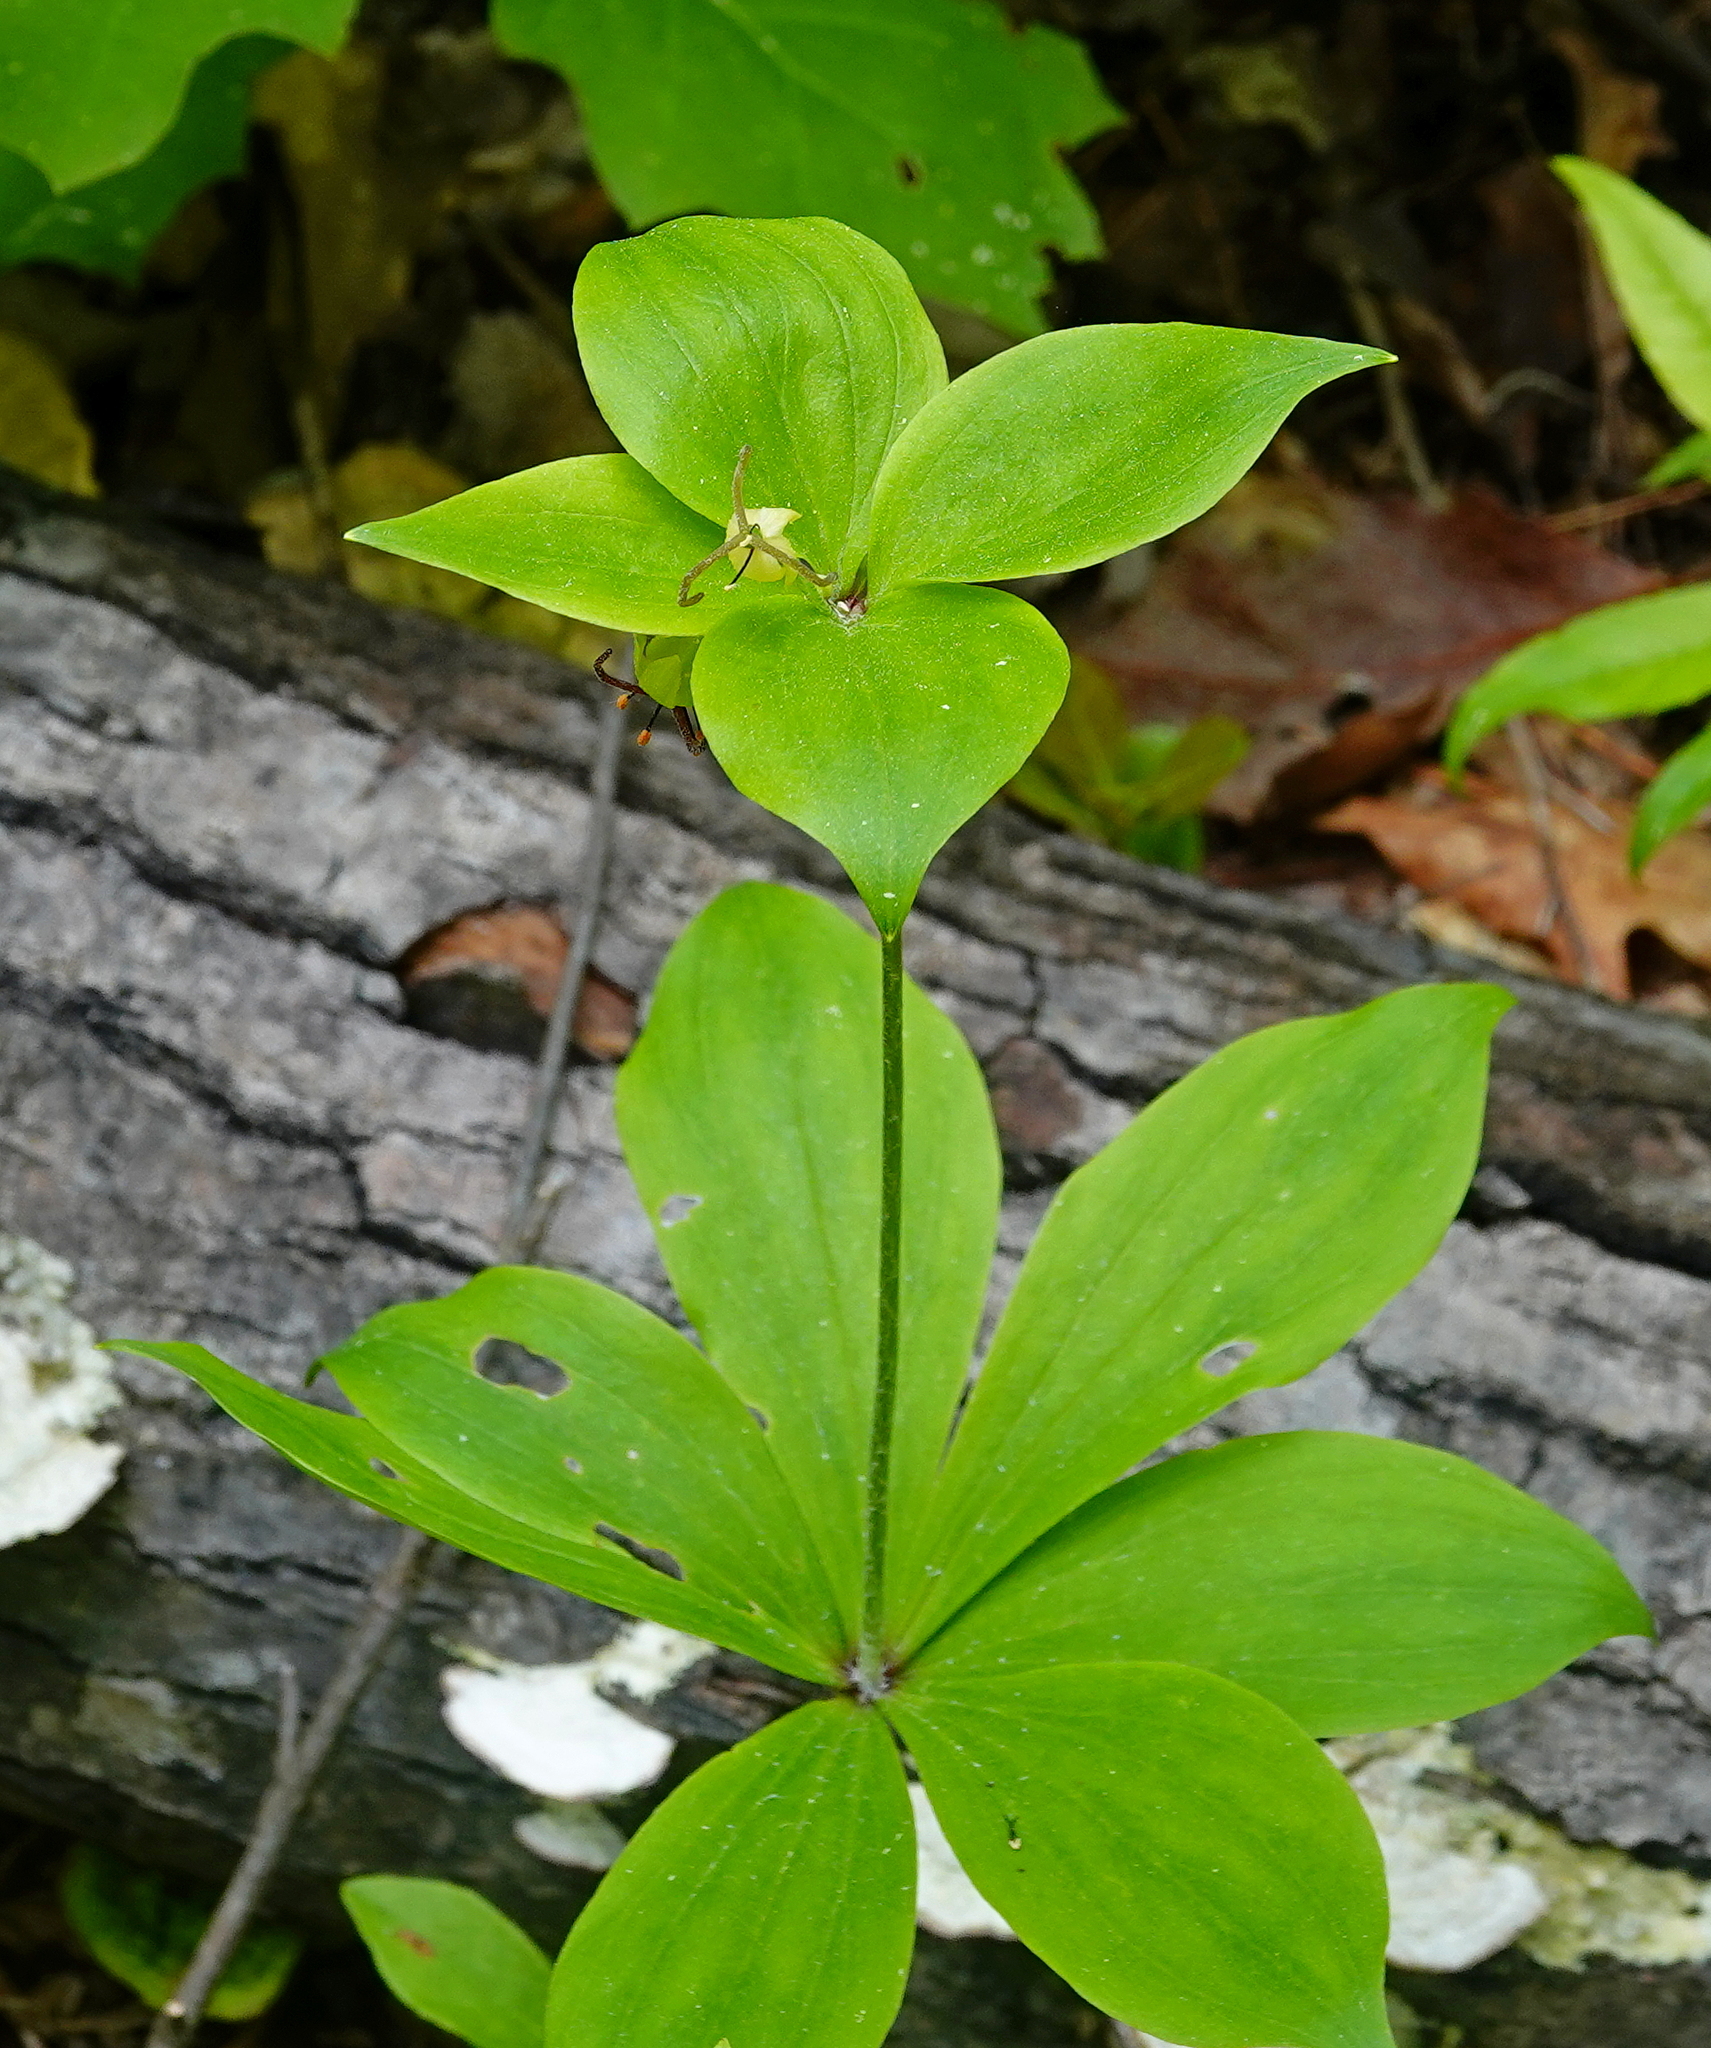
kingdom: Plantae
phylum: Tracheophyta
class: Liliopsida
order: Liliales
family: Liliaceae
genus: Medeola
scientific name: Medeola virginiana
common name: Indian cucumber-root
